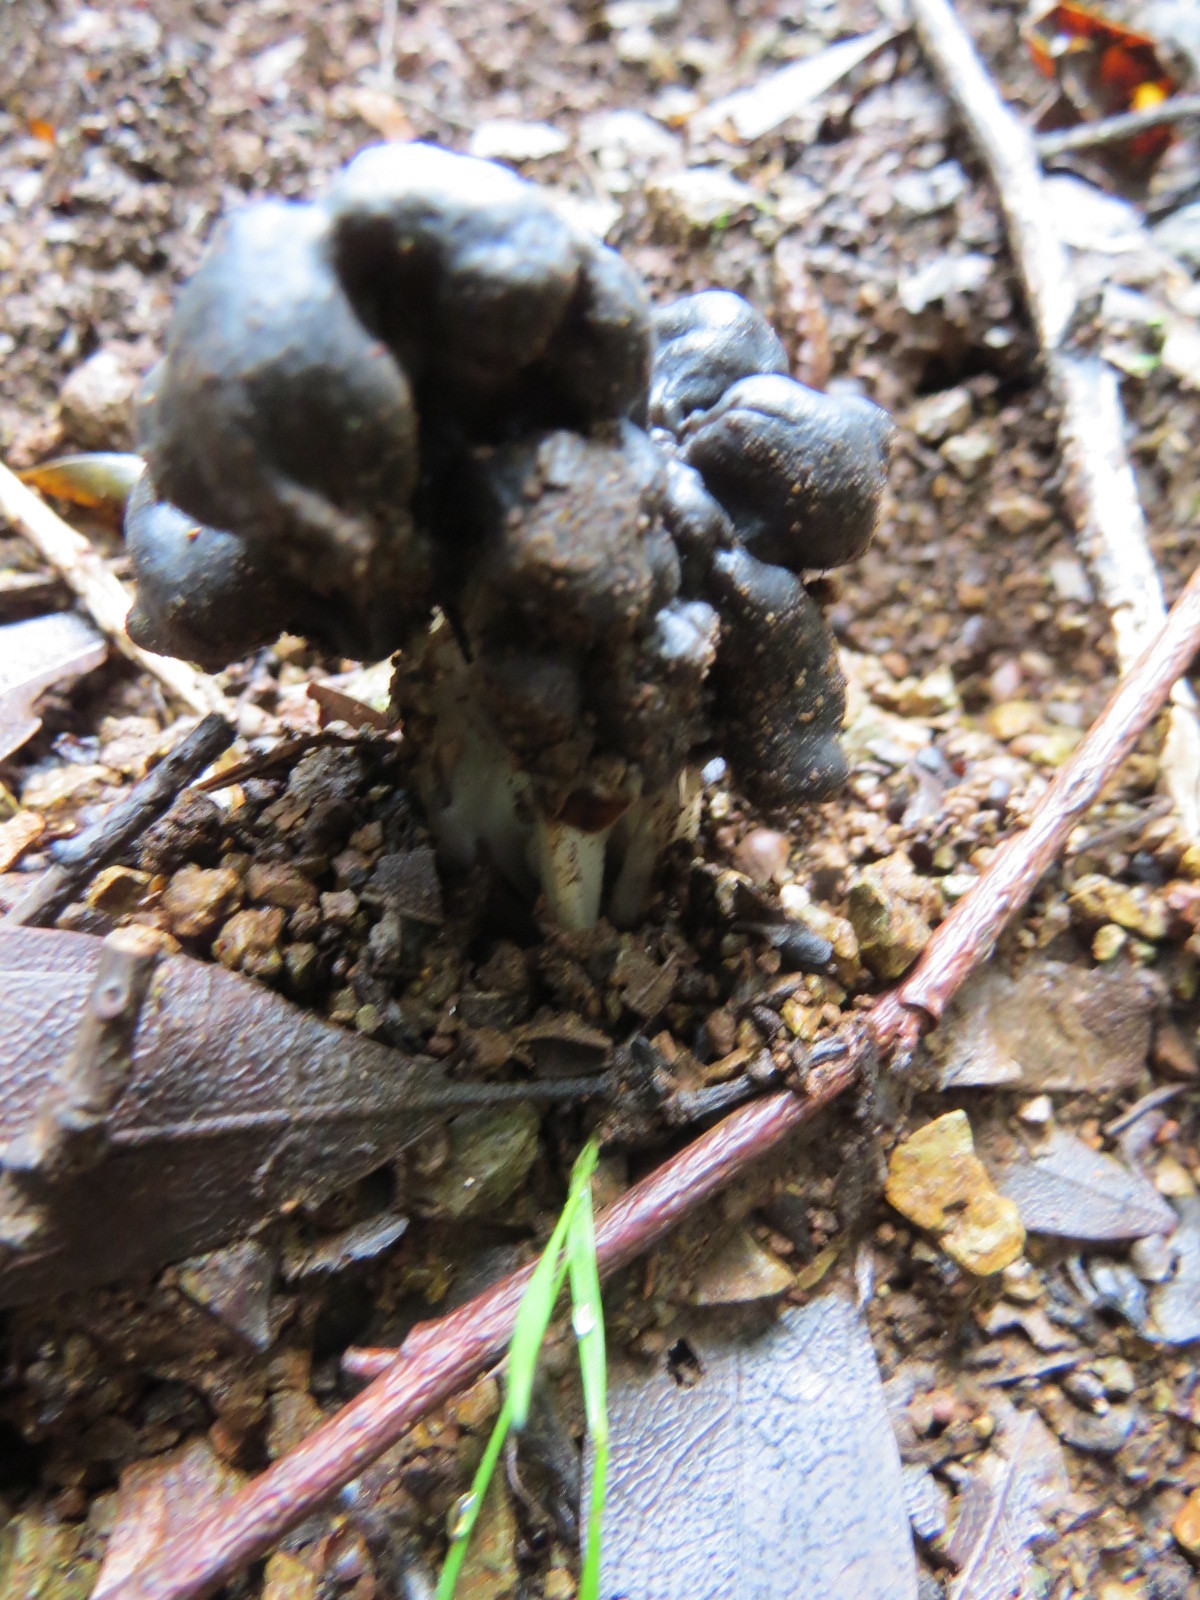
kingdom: Fungi
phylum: Ascomycota
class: Pezizomycetes
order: Pezizales
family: Helvellaceae
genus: Helvella
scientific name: Helvella dryophila
